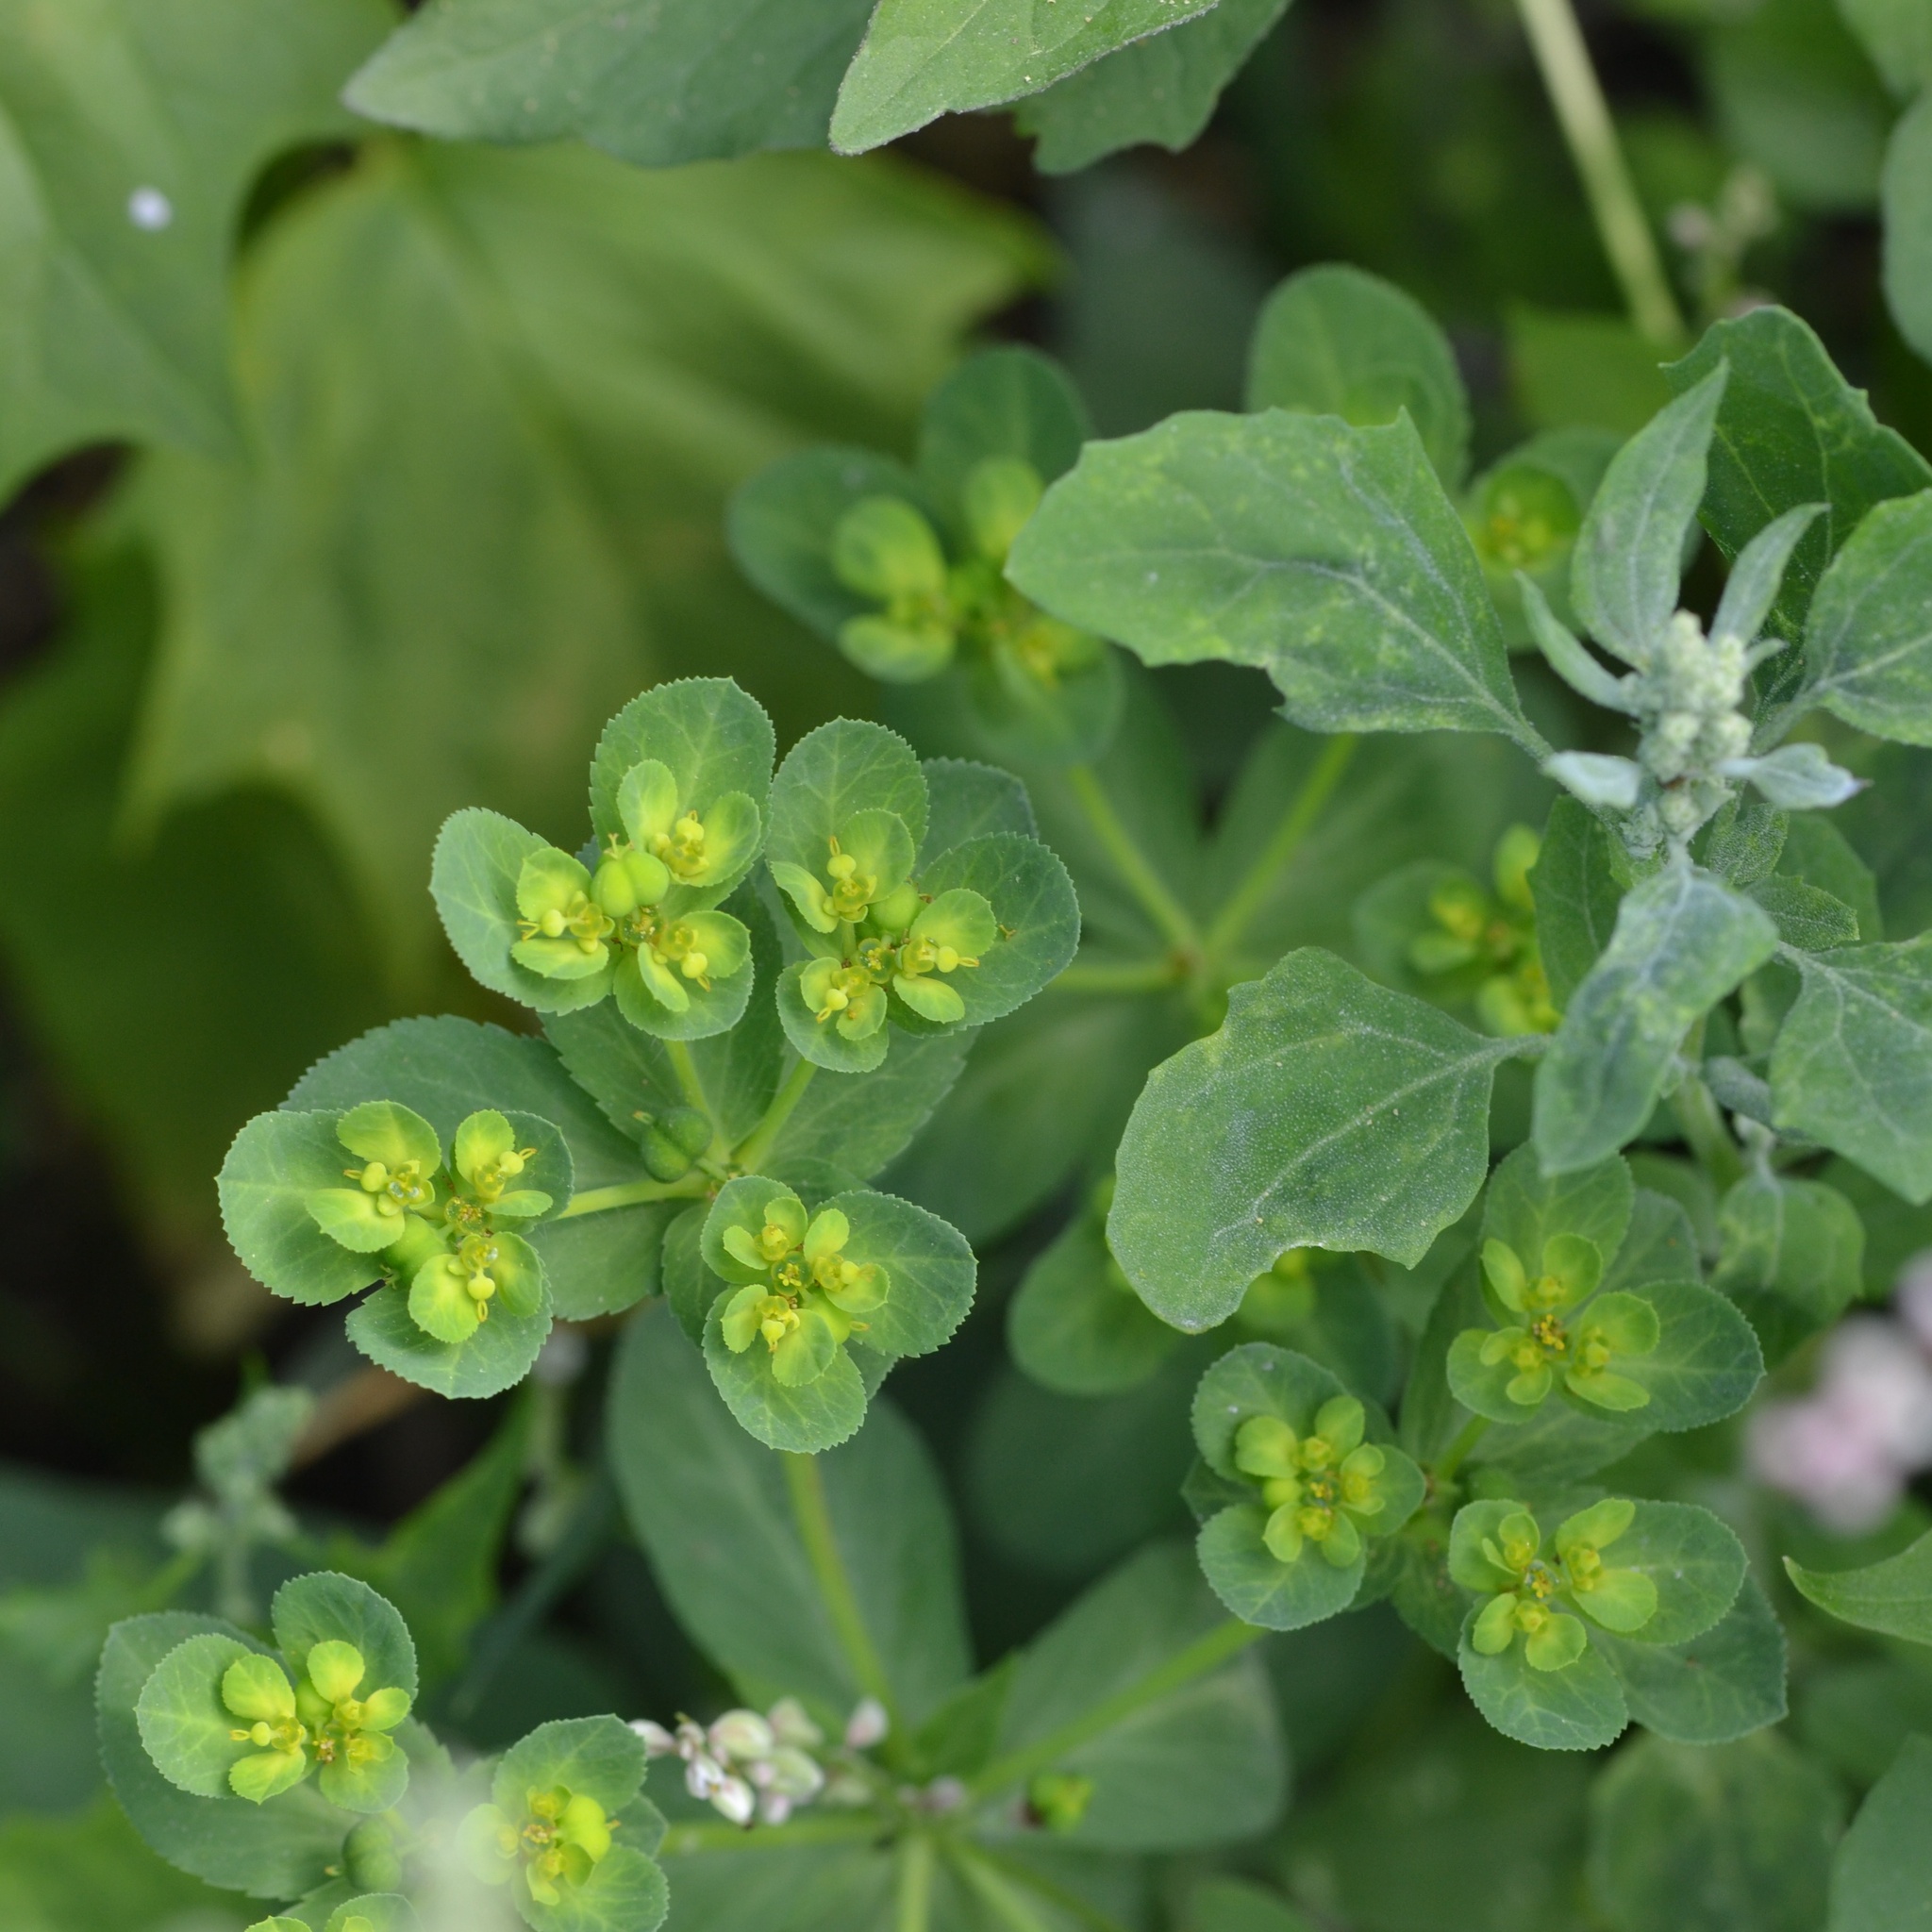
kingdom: Plantae
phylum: Tracheophyta
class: Magnoliopsida
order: Malpighiales
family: Euphorbiaceae
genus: Euphorbia
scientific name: Euphorbia helioscopia
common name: Sun spurge
